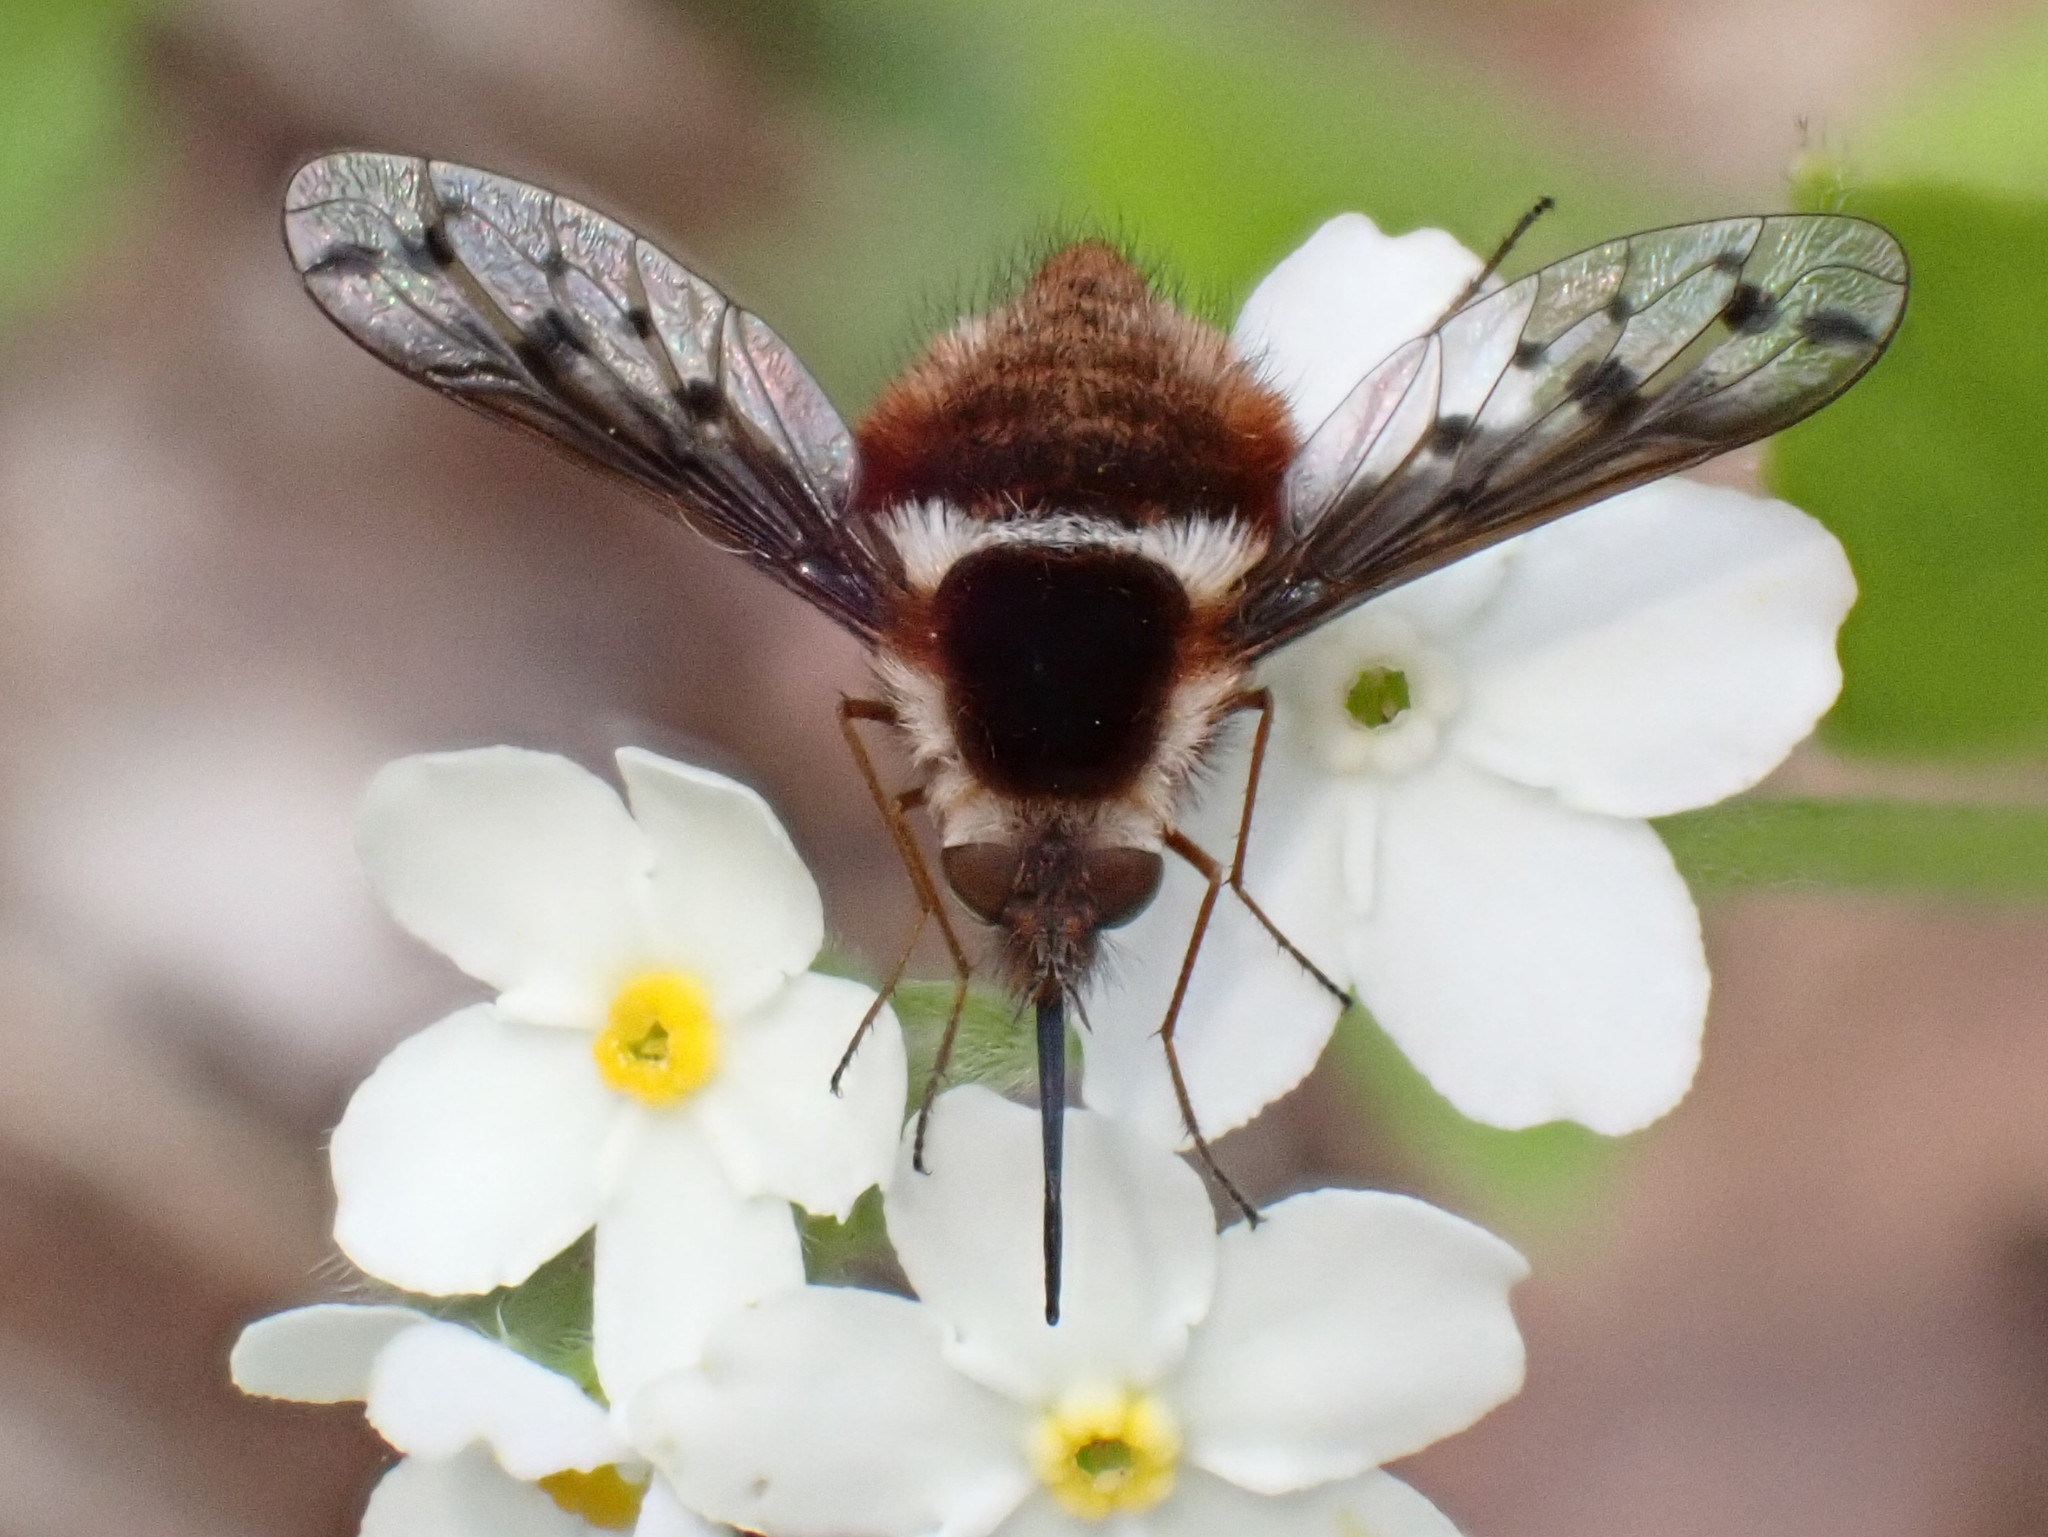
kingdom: Animalia
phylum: Arthropoda
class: Insecta
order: Diptera
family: Bombyliidae
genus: Bombylius
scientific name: Bombylius pygmaeus
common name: Pygmy bee fly
